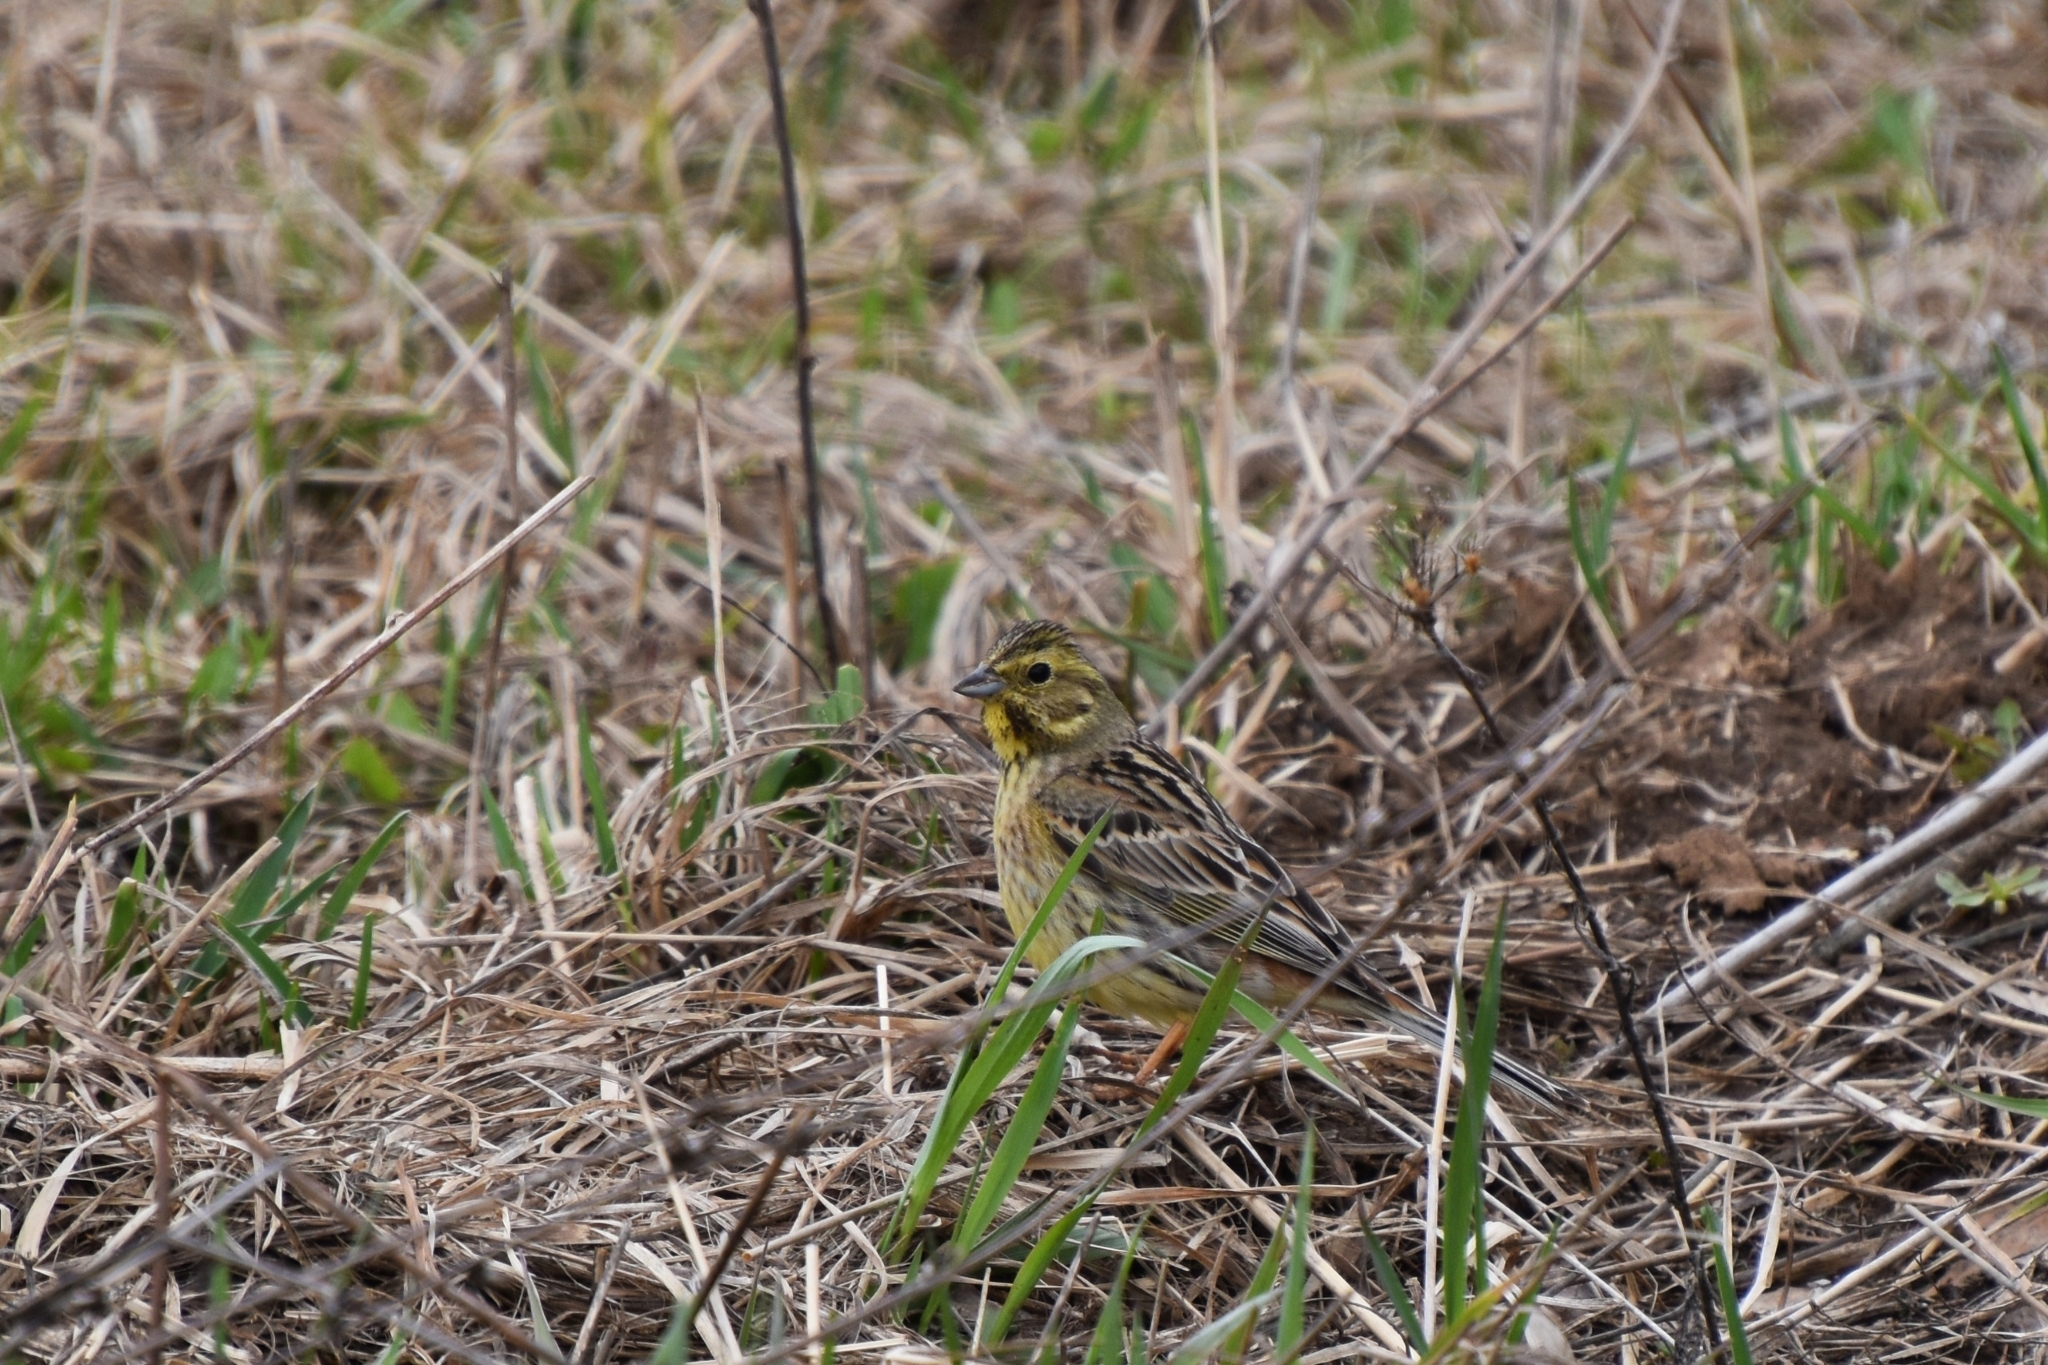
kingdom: Animalia
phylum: Chordata
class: Aves
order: Passeriformes
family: Emberizidae
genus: Emberiza
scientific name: Emberiza citrinella
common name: Yellowhammer
